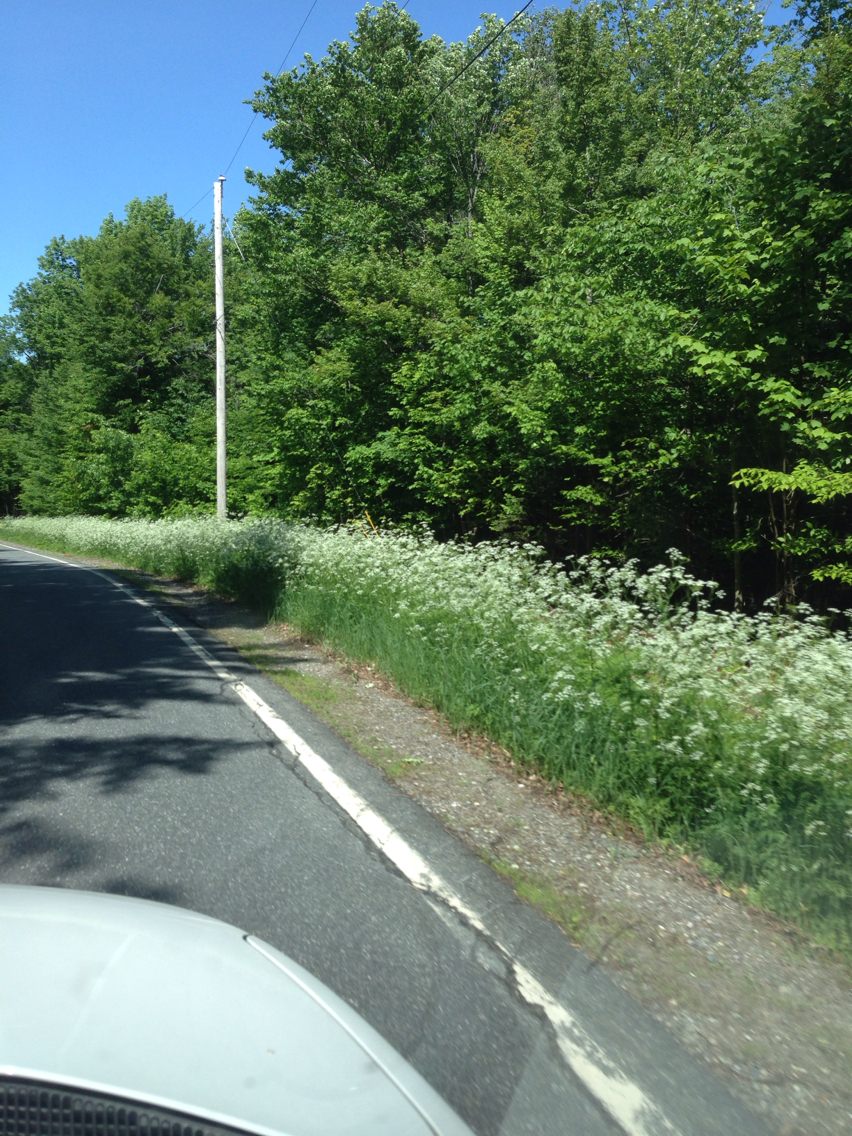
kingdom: Plantae
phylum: Tracheophyta
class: Magnoliopsida
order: Apiales
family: Apiaceae
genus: Anthriscus
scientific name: Anthriscus sylvestris
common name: Cow parsley
